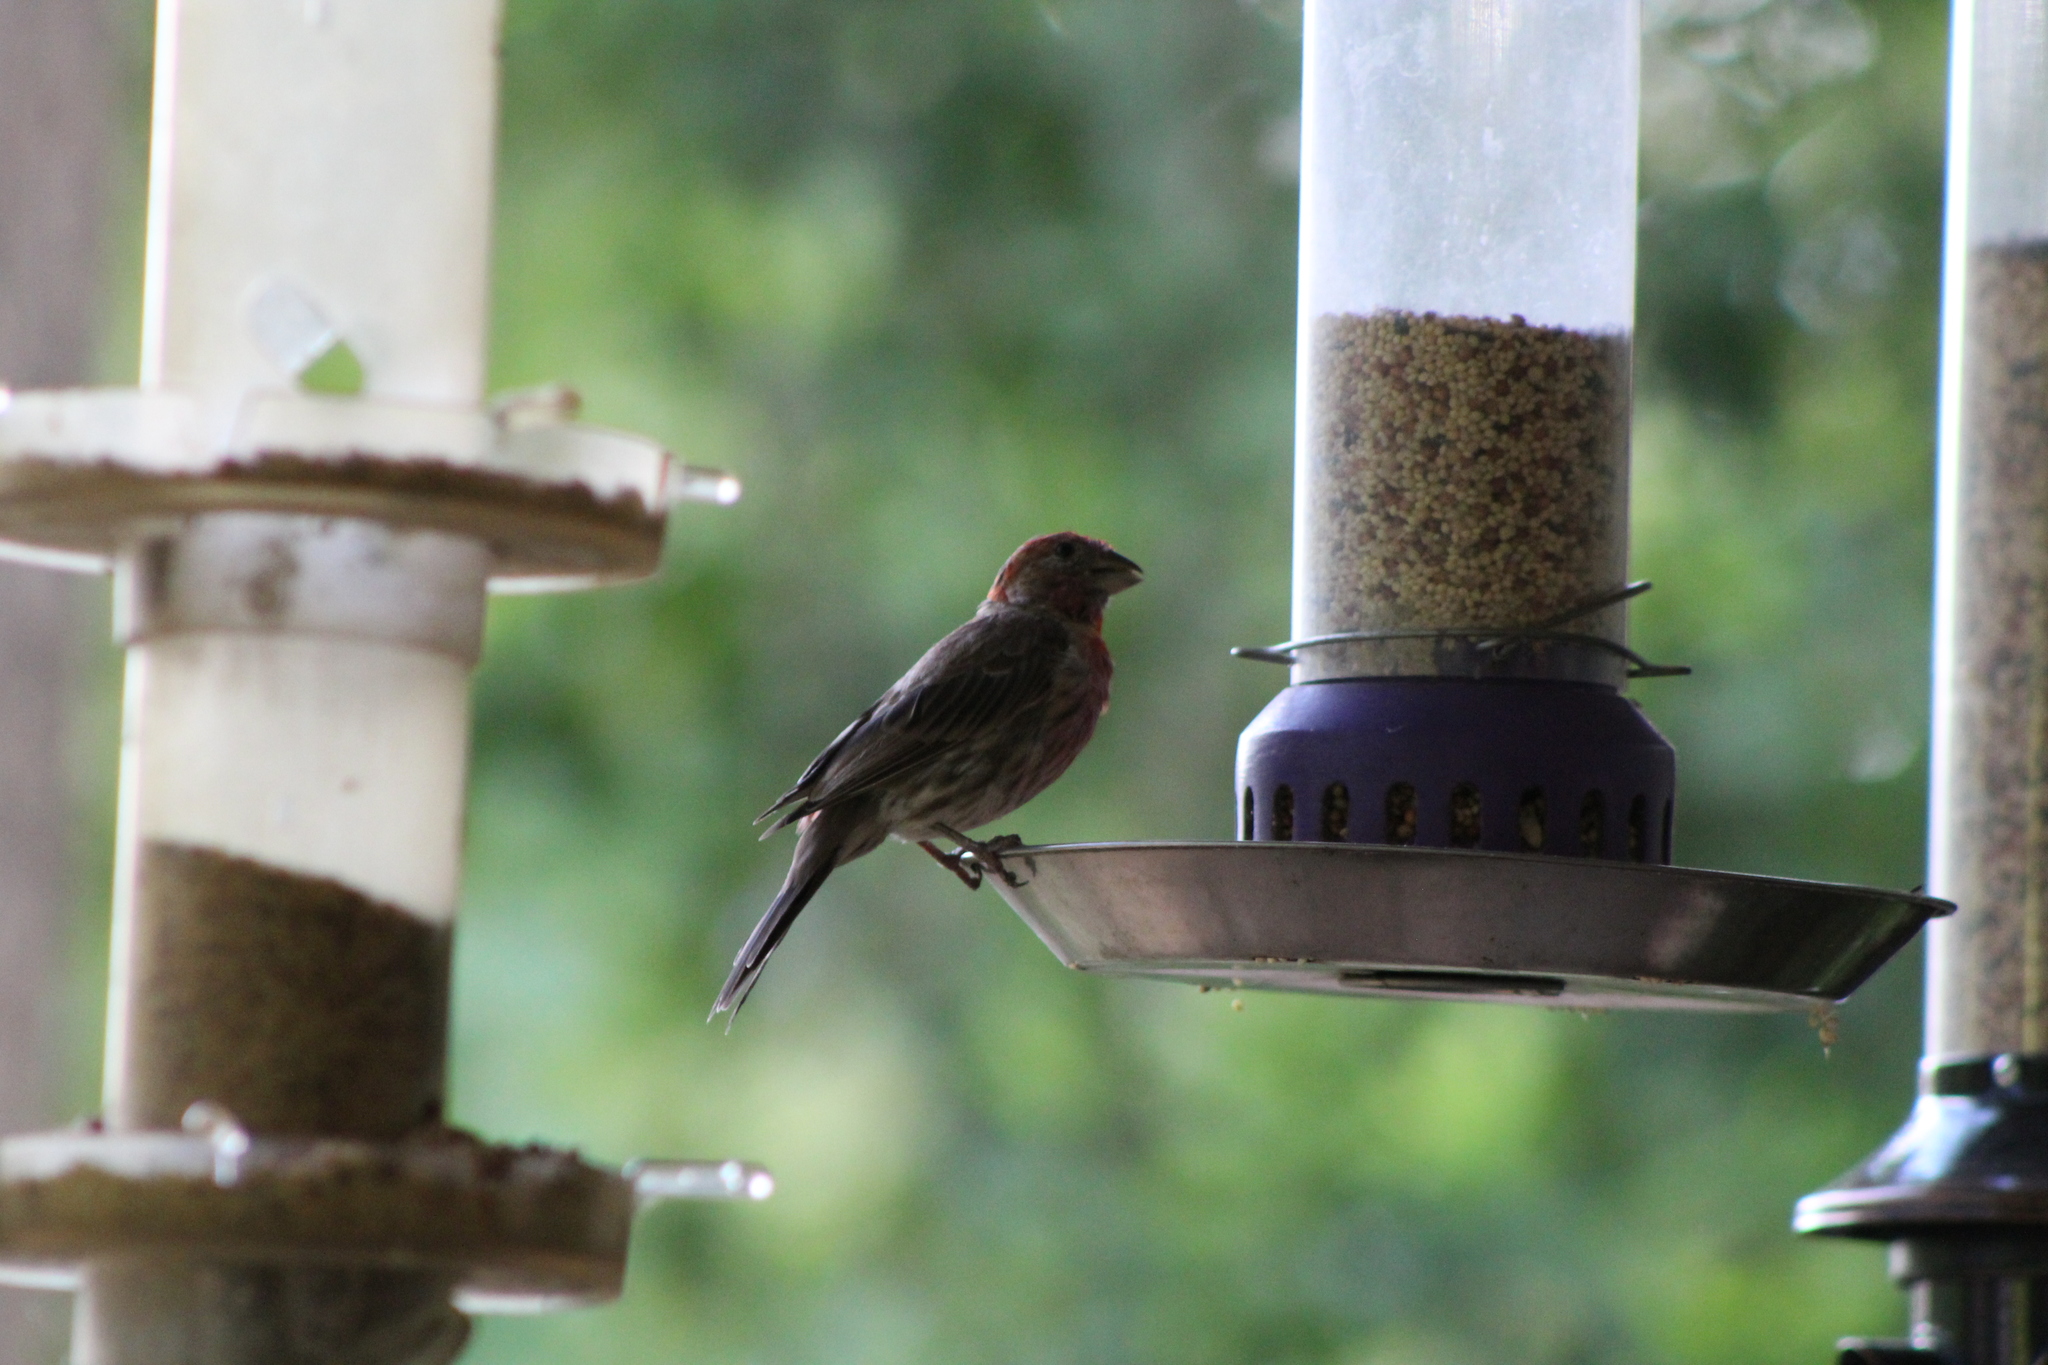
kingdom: Animalia
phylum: Chordata
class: Aves
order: Passeriformes
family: Fringillidae
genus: Haemorhous
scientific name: Haemorhous mexicanus
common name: House finch
